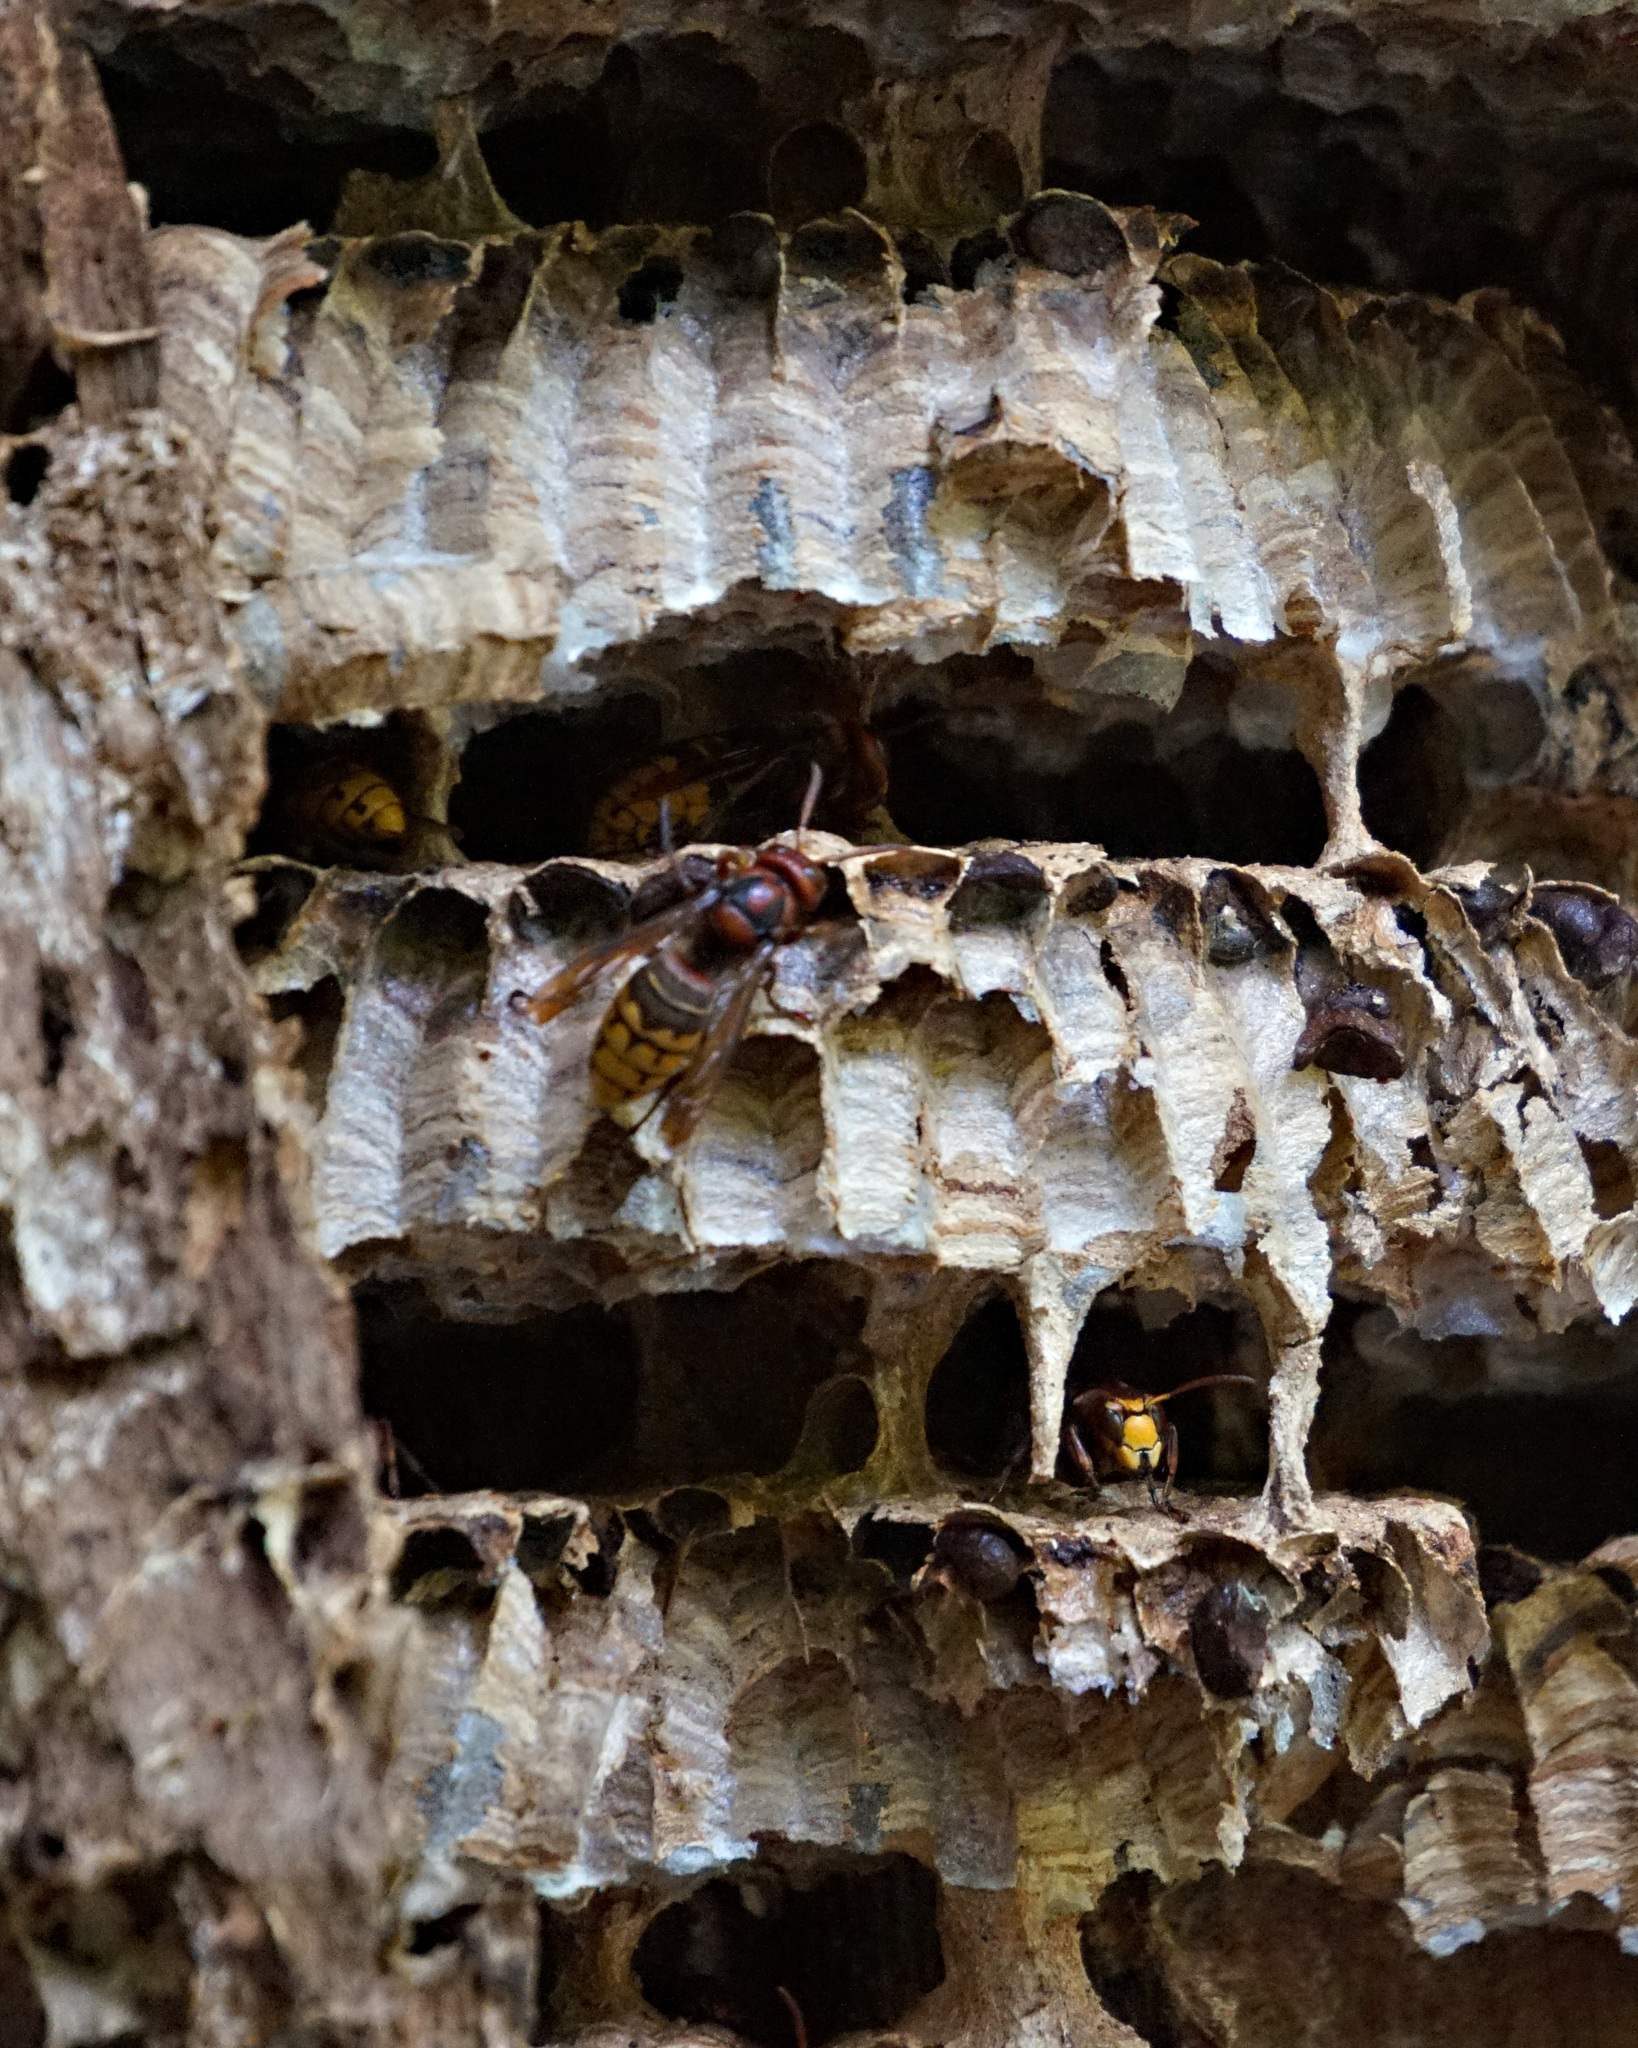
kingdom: Animalia
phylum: Arthropoda
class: Insecta
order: Hymenoptera
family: Vespidae
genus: Vespa
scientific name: Vespa crabro
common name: Hornet
